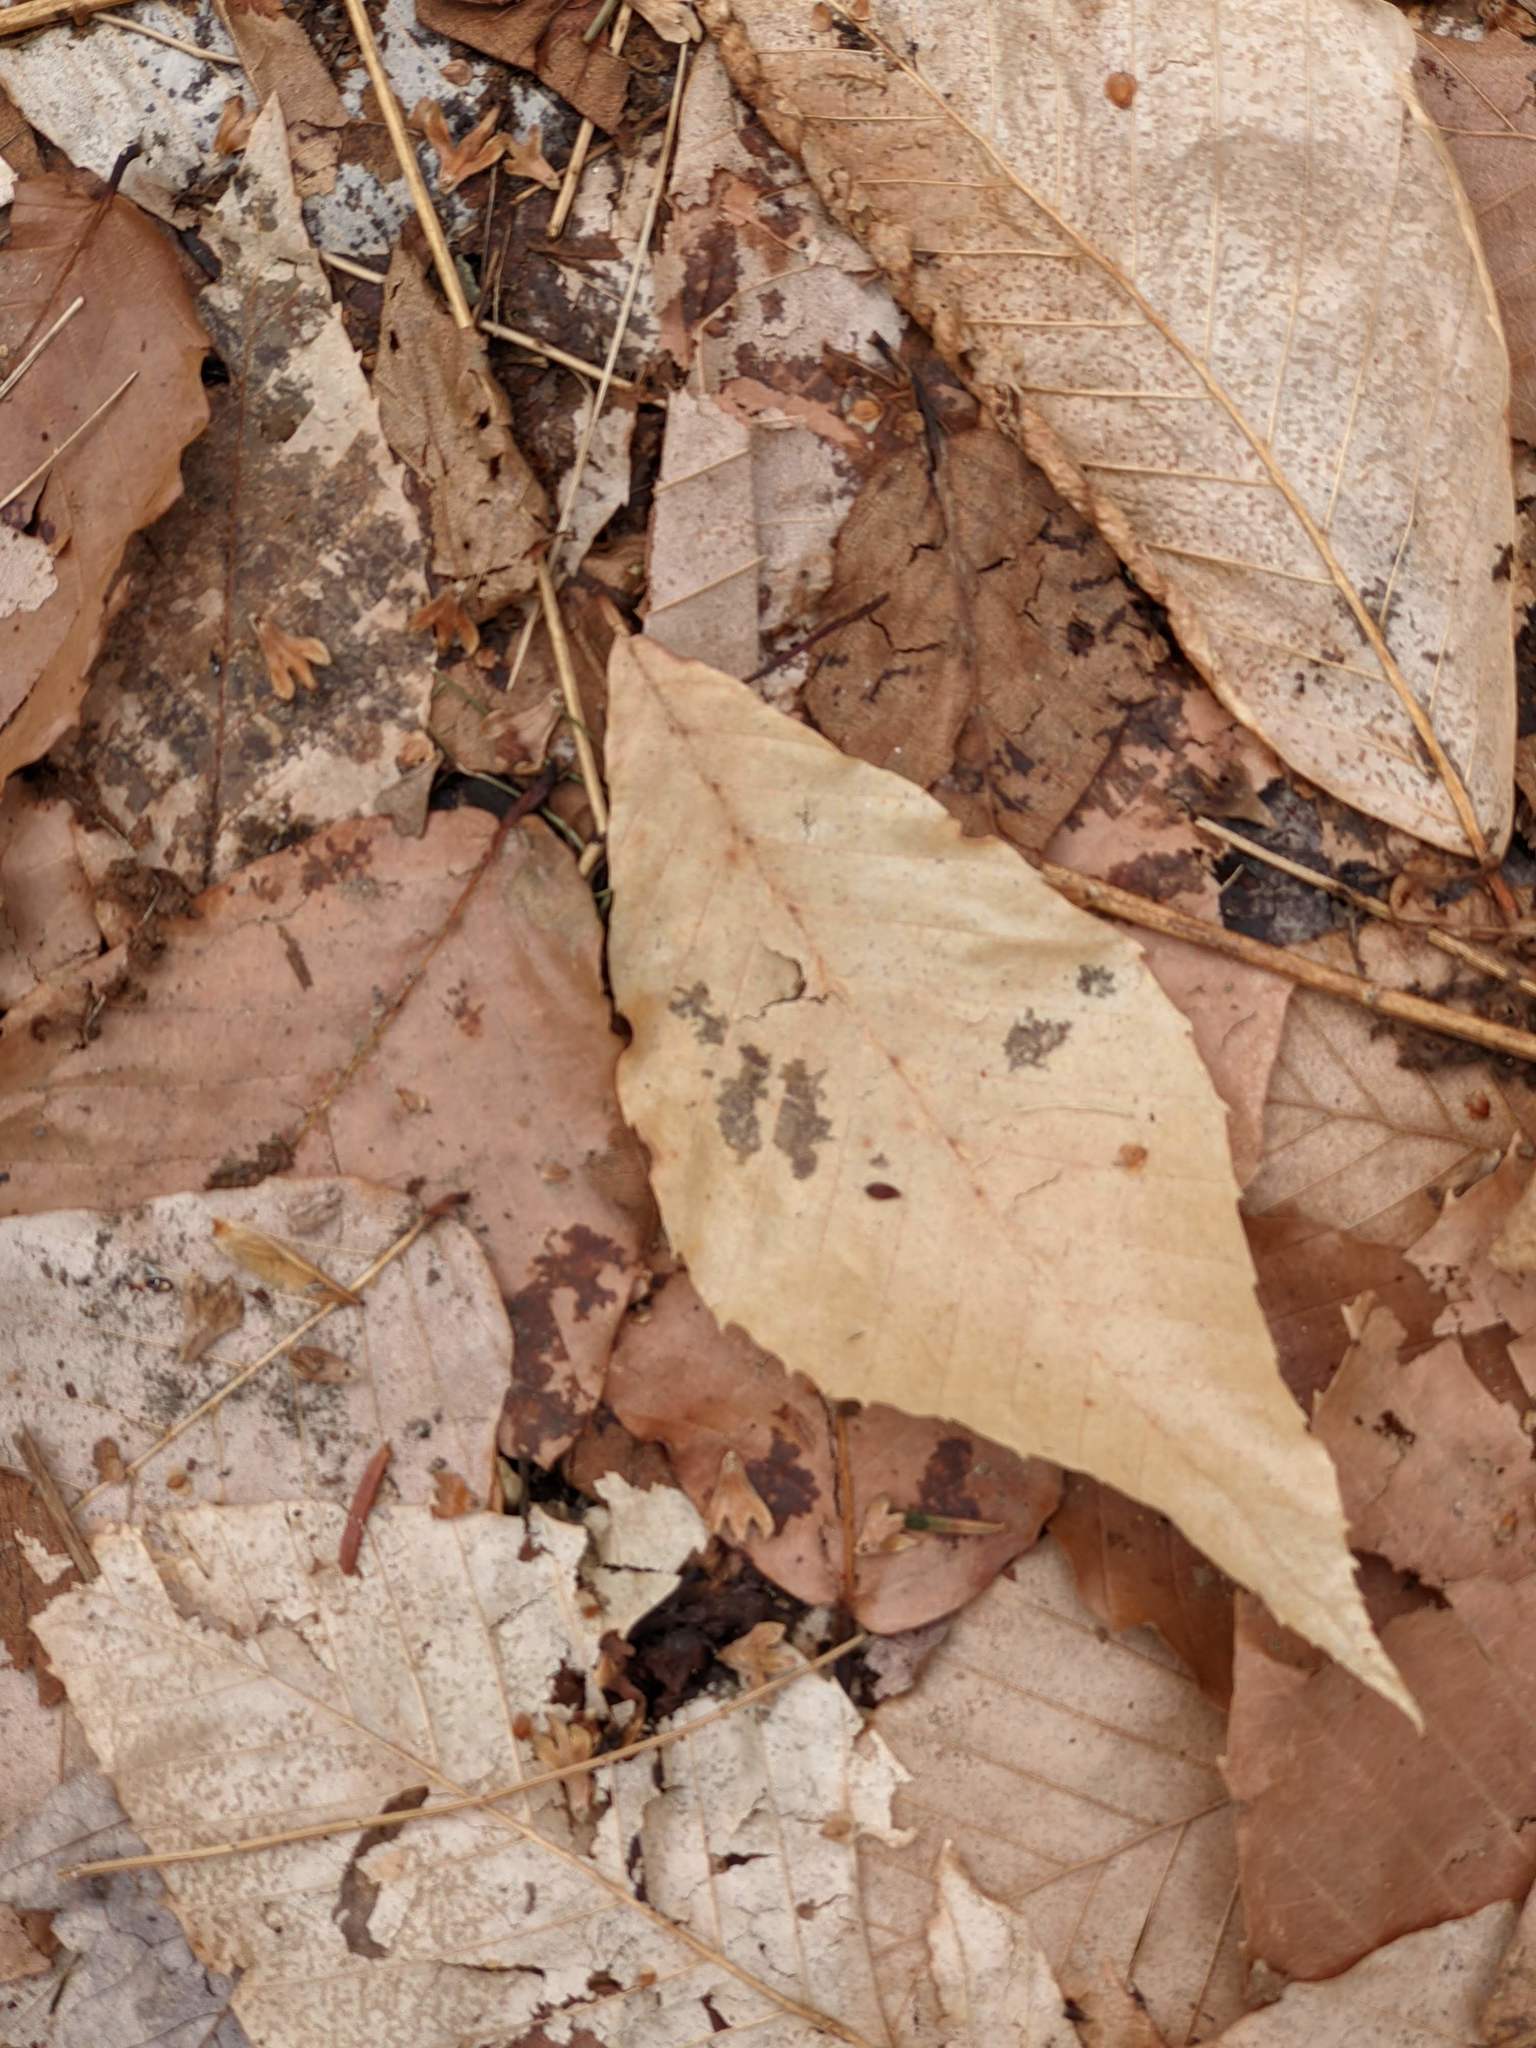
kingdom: Plantae
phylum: Tracheophyta
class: Magnoliopsida
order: Fagales
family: Fagaceae
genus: Fagus
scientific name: Fagus grandifolia
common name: American beech
